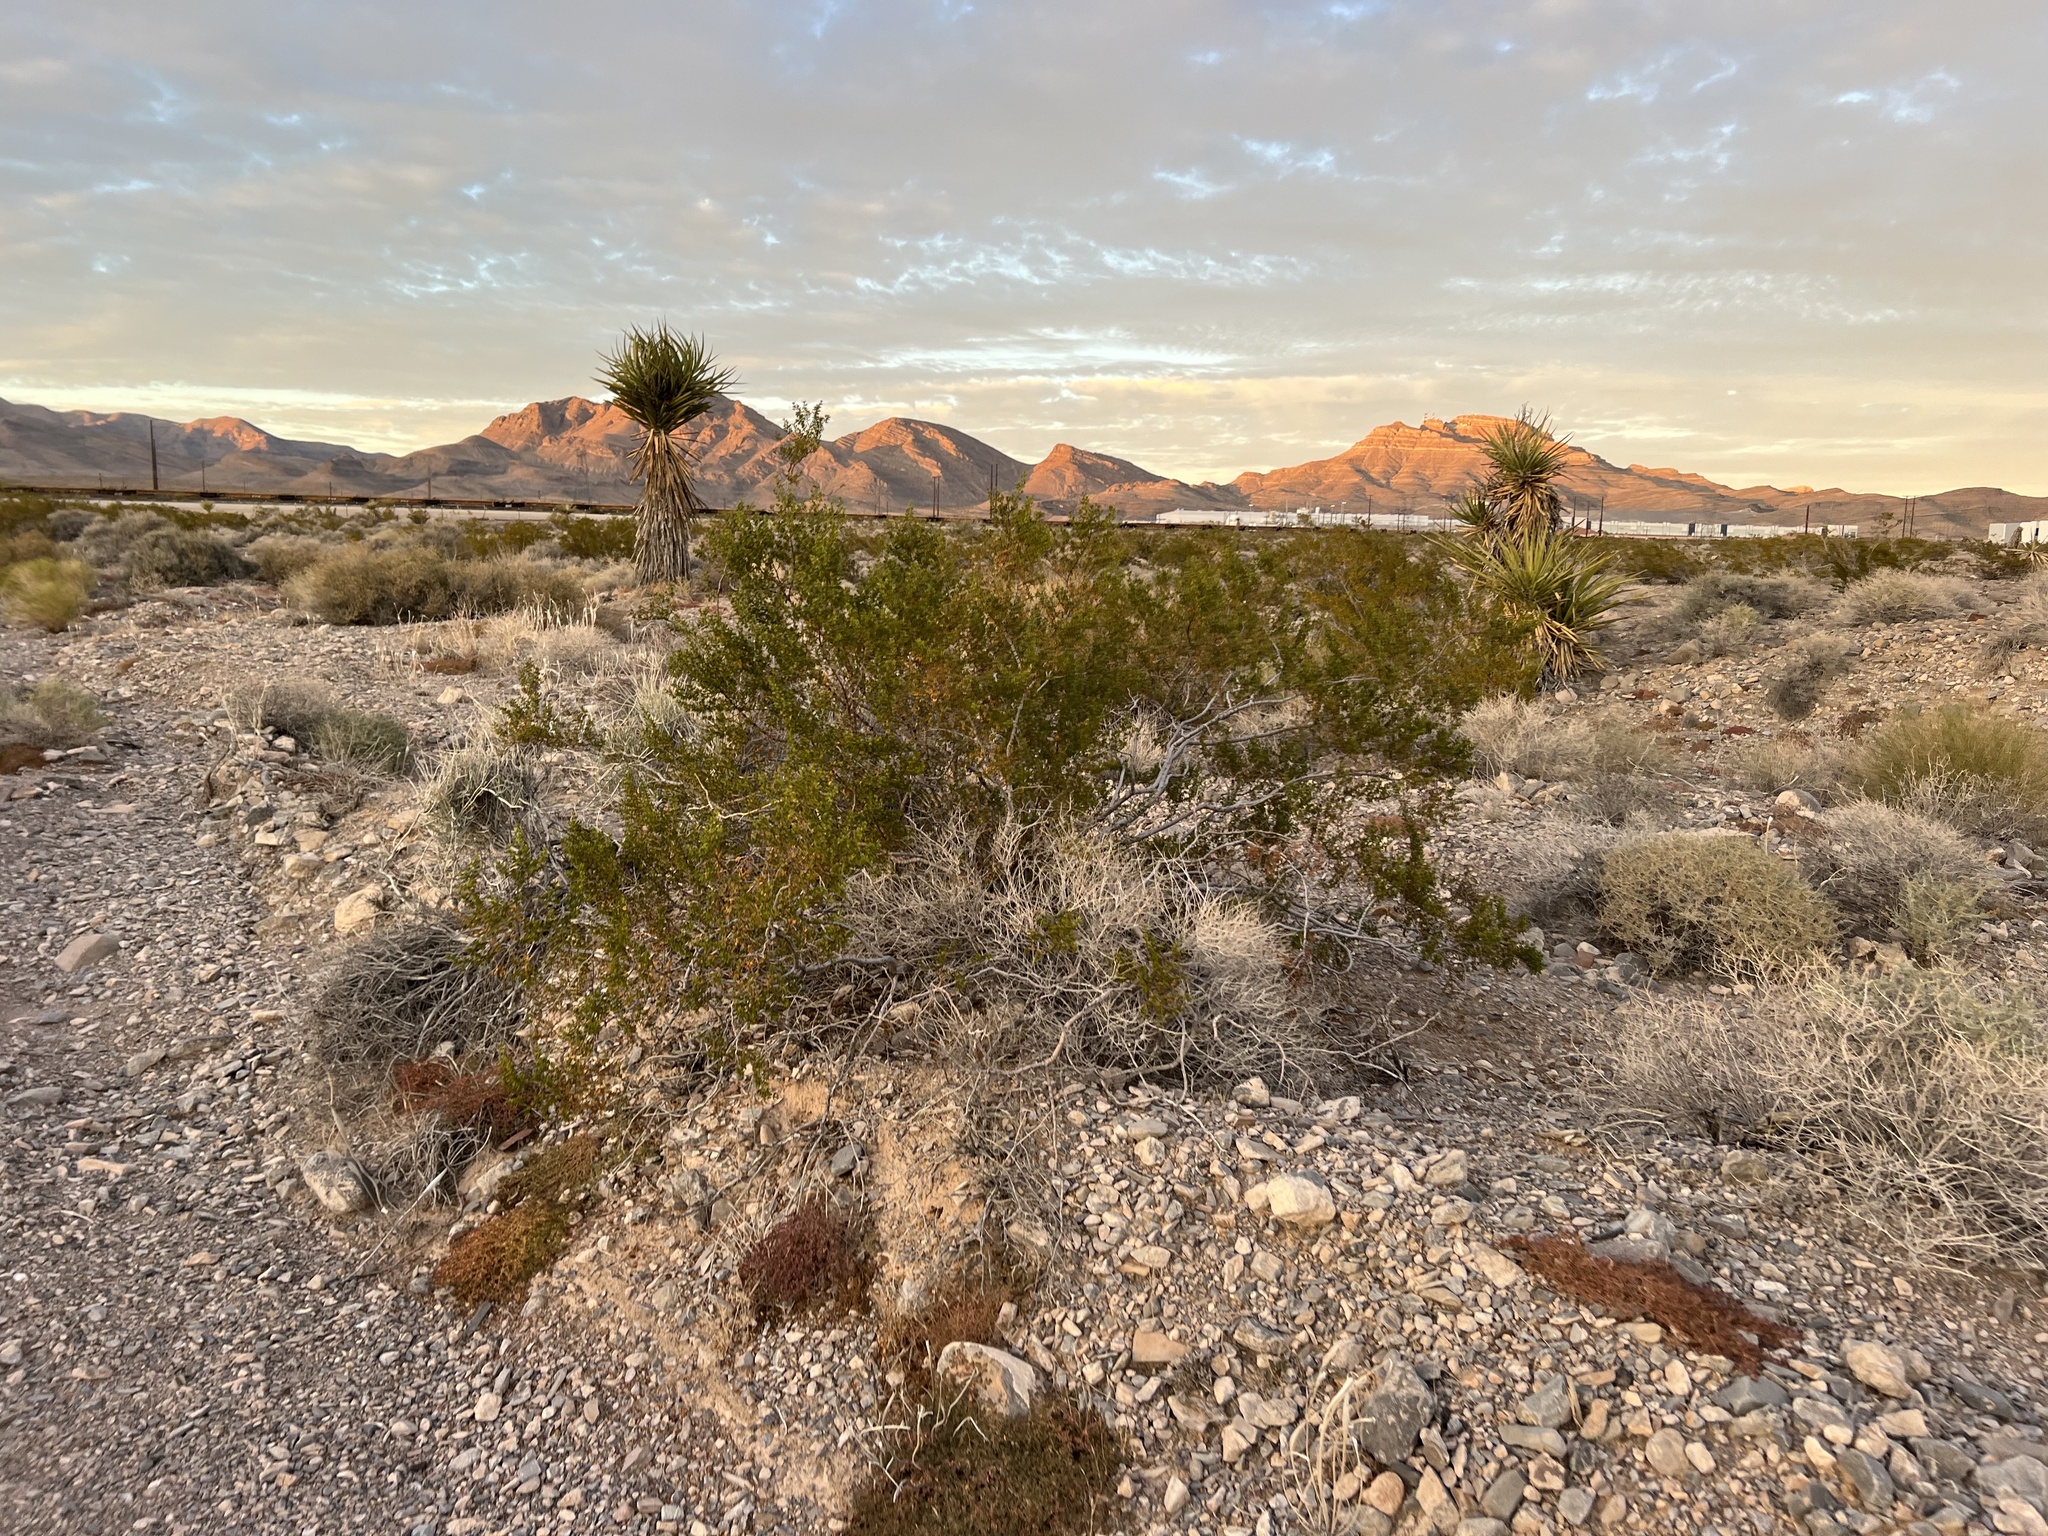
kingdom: Plantae
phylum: Tracheophyta
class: Magnoliopsida
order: Zygophyllales
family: Zygophyllaceae
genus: Larrea
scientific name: Larrea tridentata
